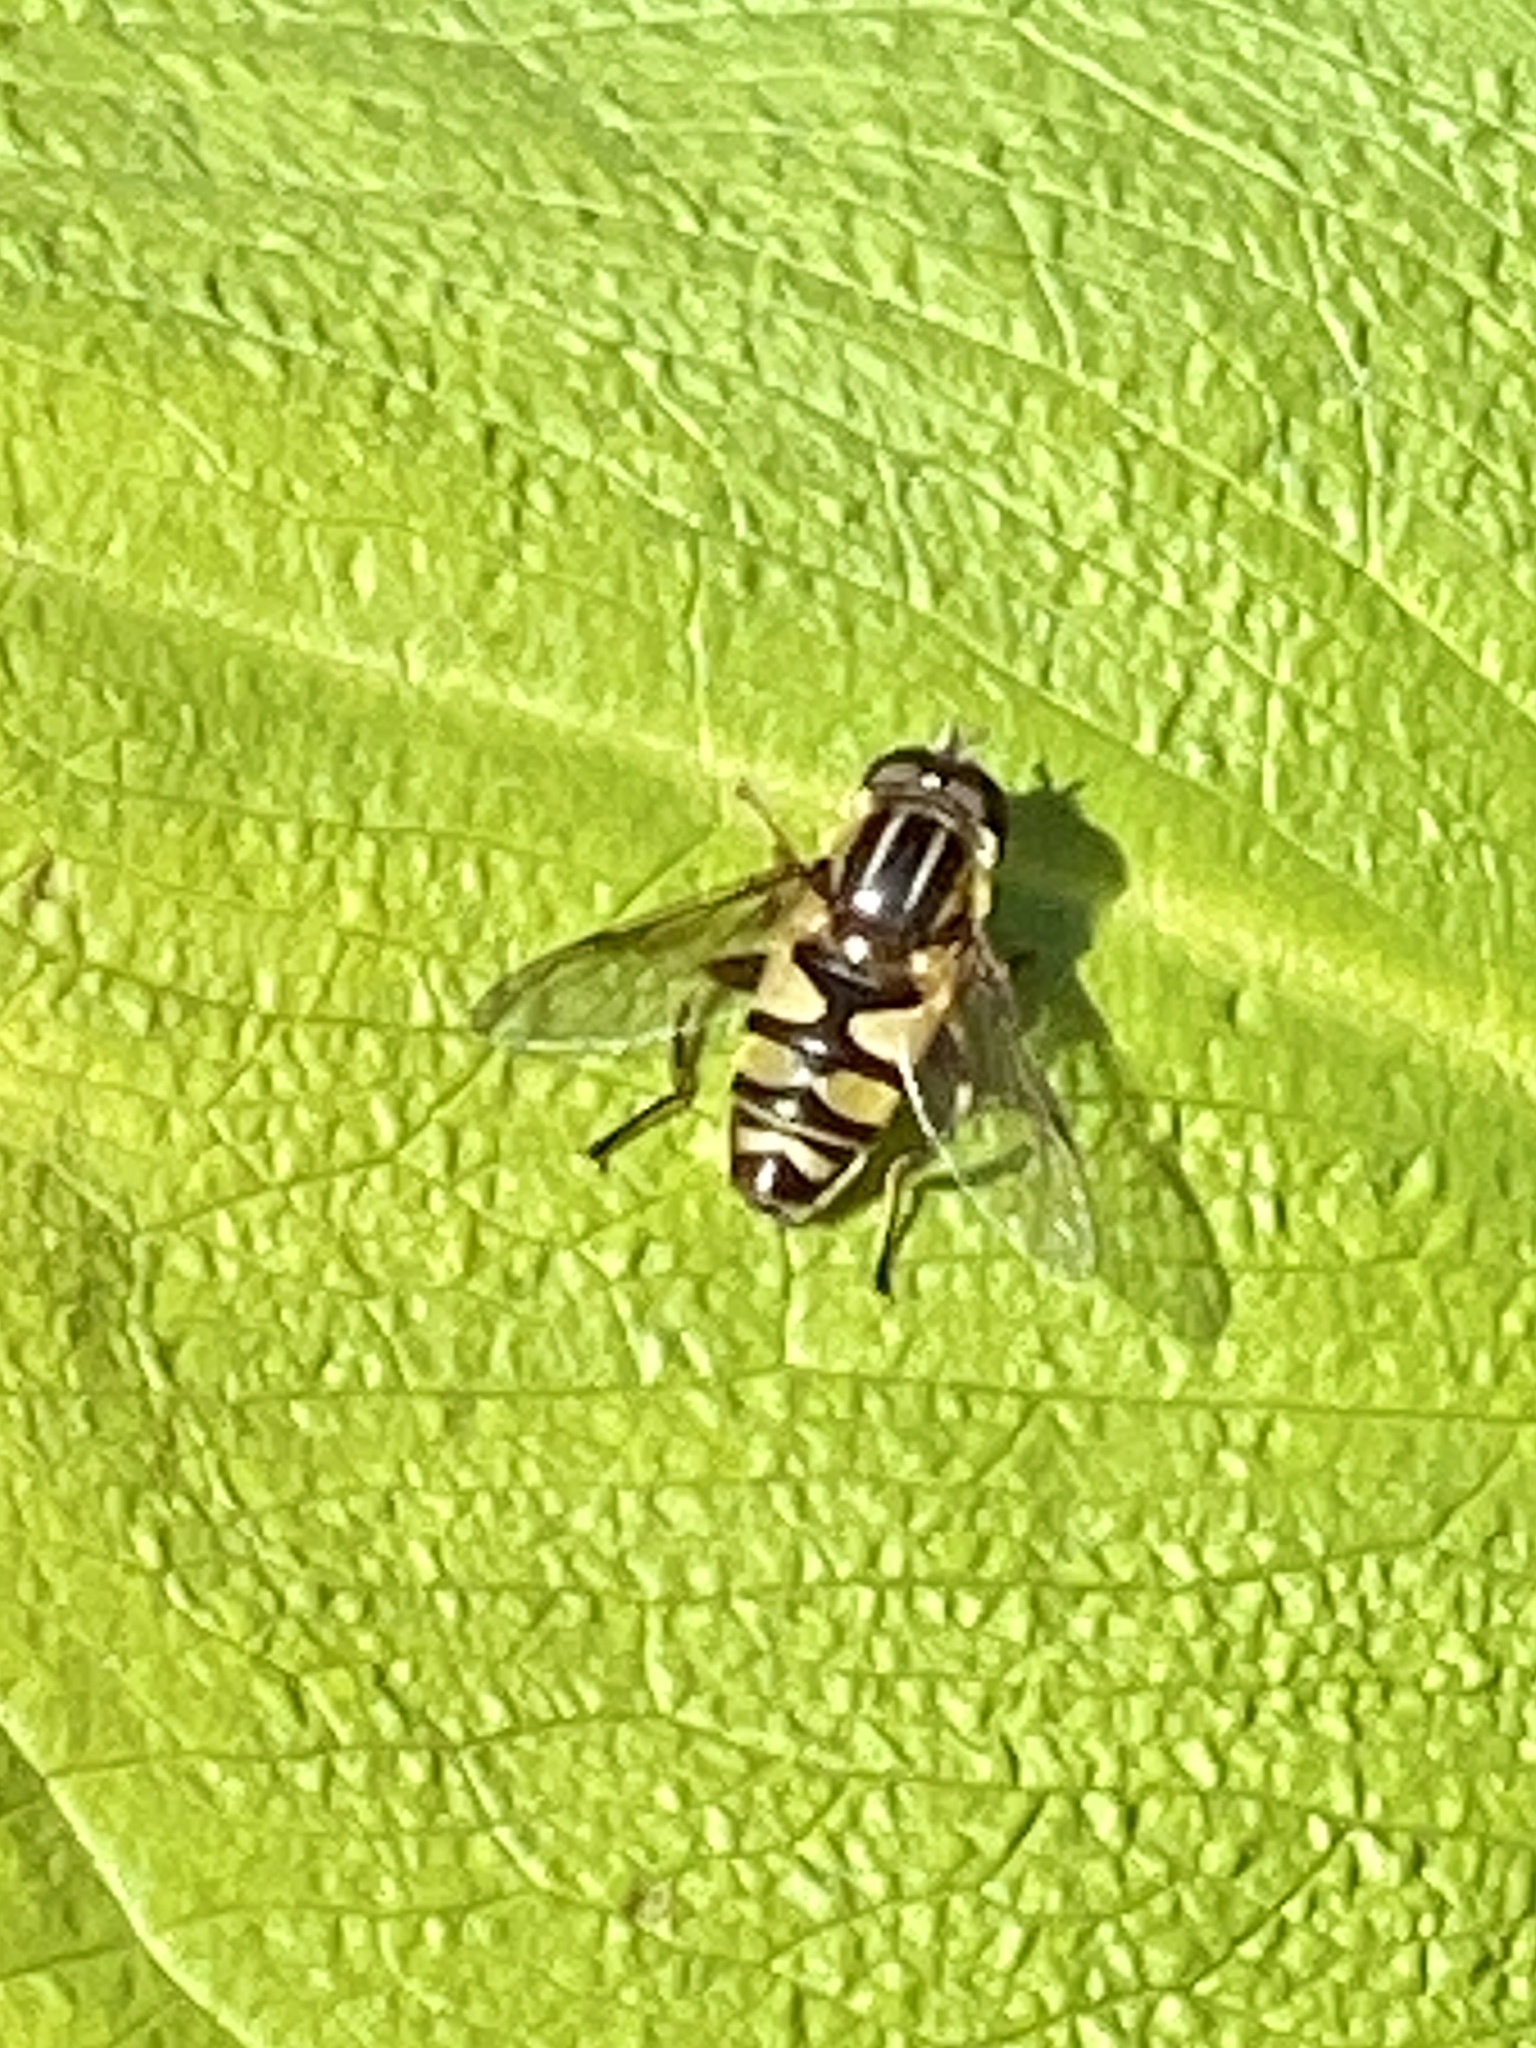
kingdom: Animalia
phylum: Arthropoda
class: Insecta
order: Diptera
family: Syrphidae
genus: Helophilus
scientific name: Helophilus fasciatus
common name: Narrow-headed marsh fly
